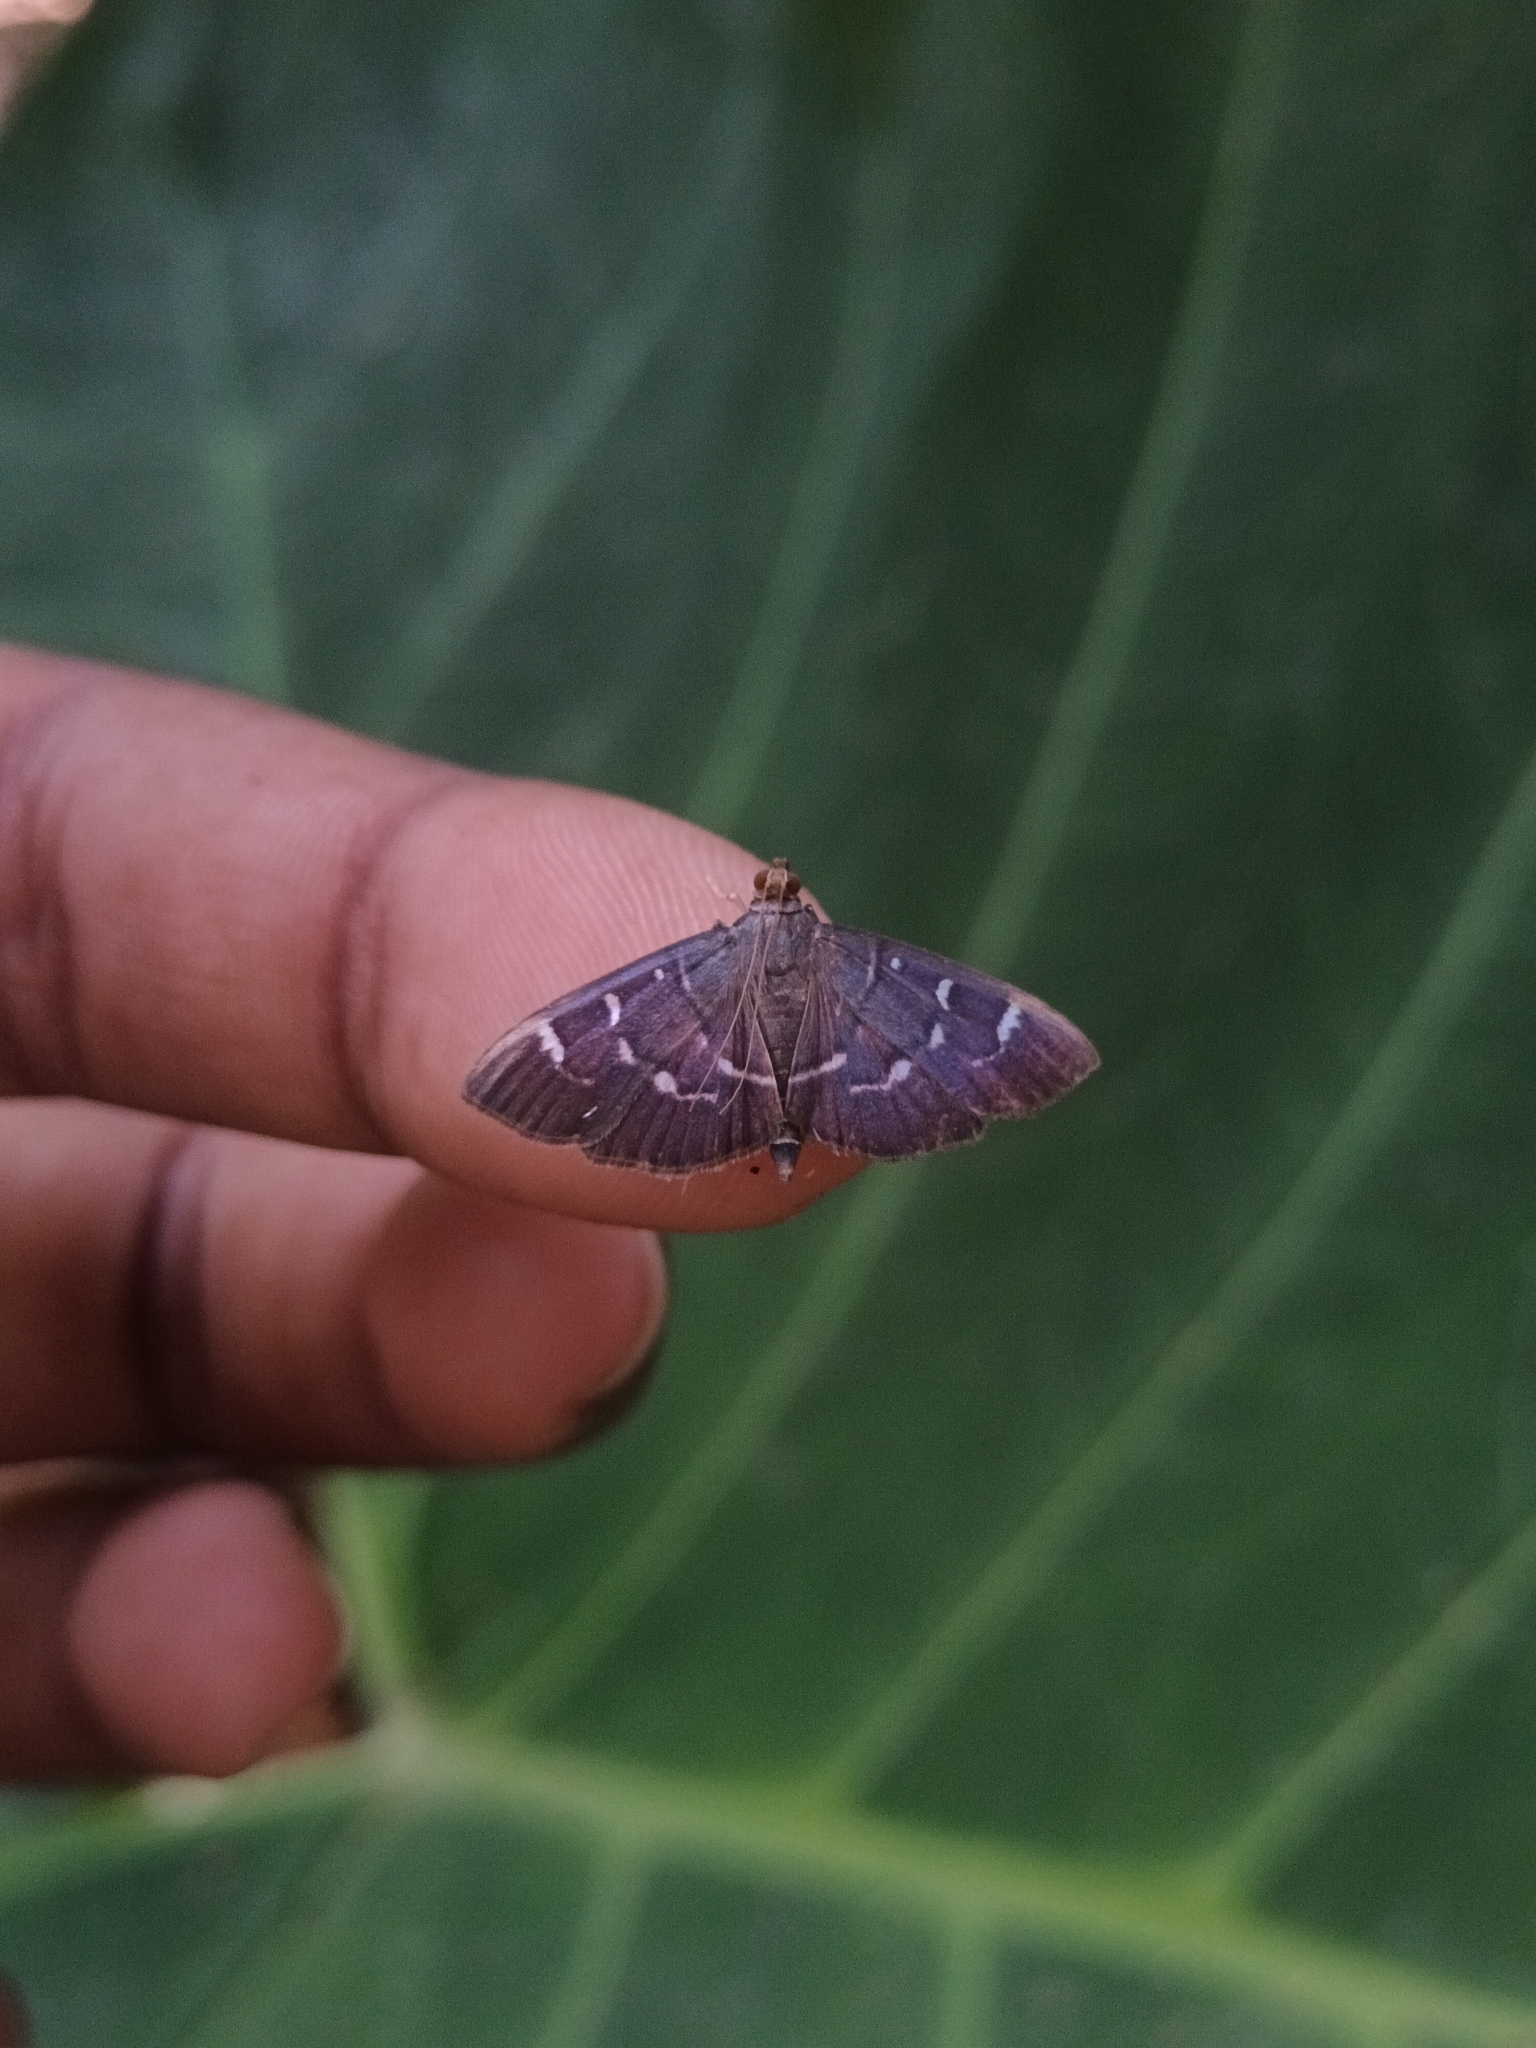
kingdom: Animalia
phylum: Arthropoda
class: Insecta
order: Lepidoptera
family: Crambidae
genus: Coptobasis
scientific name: Coptobasis arctalis
